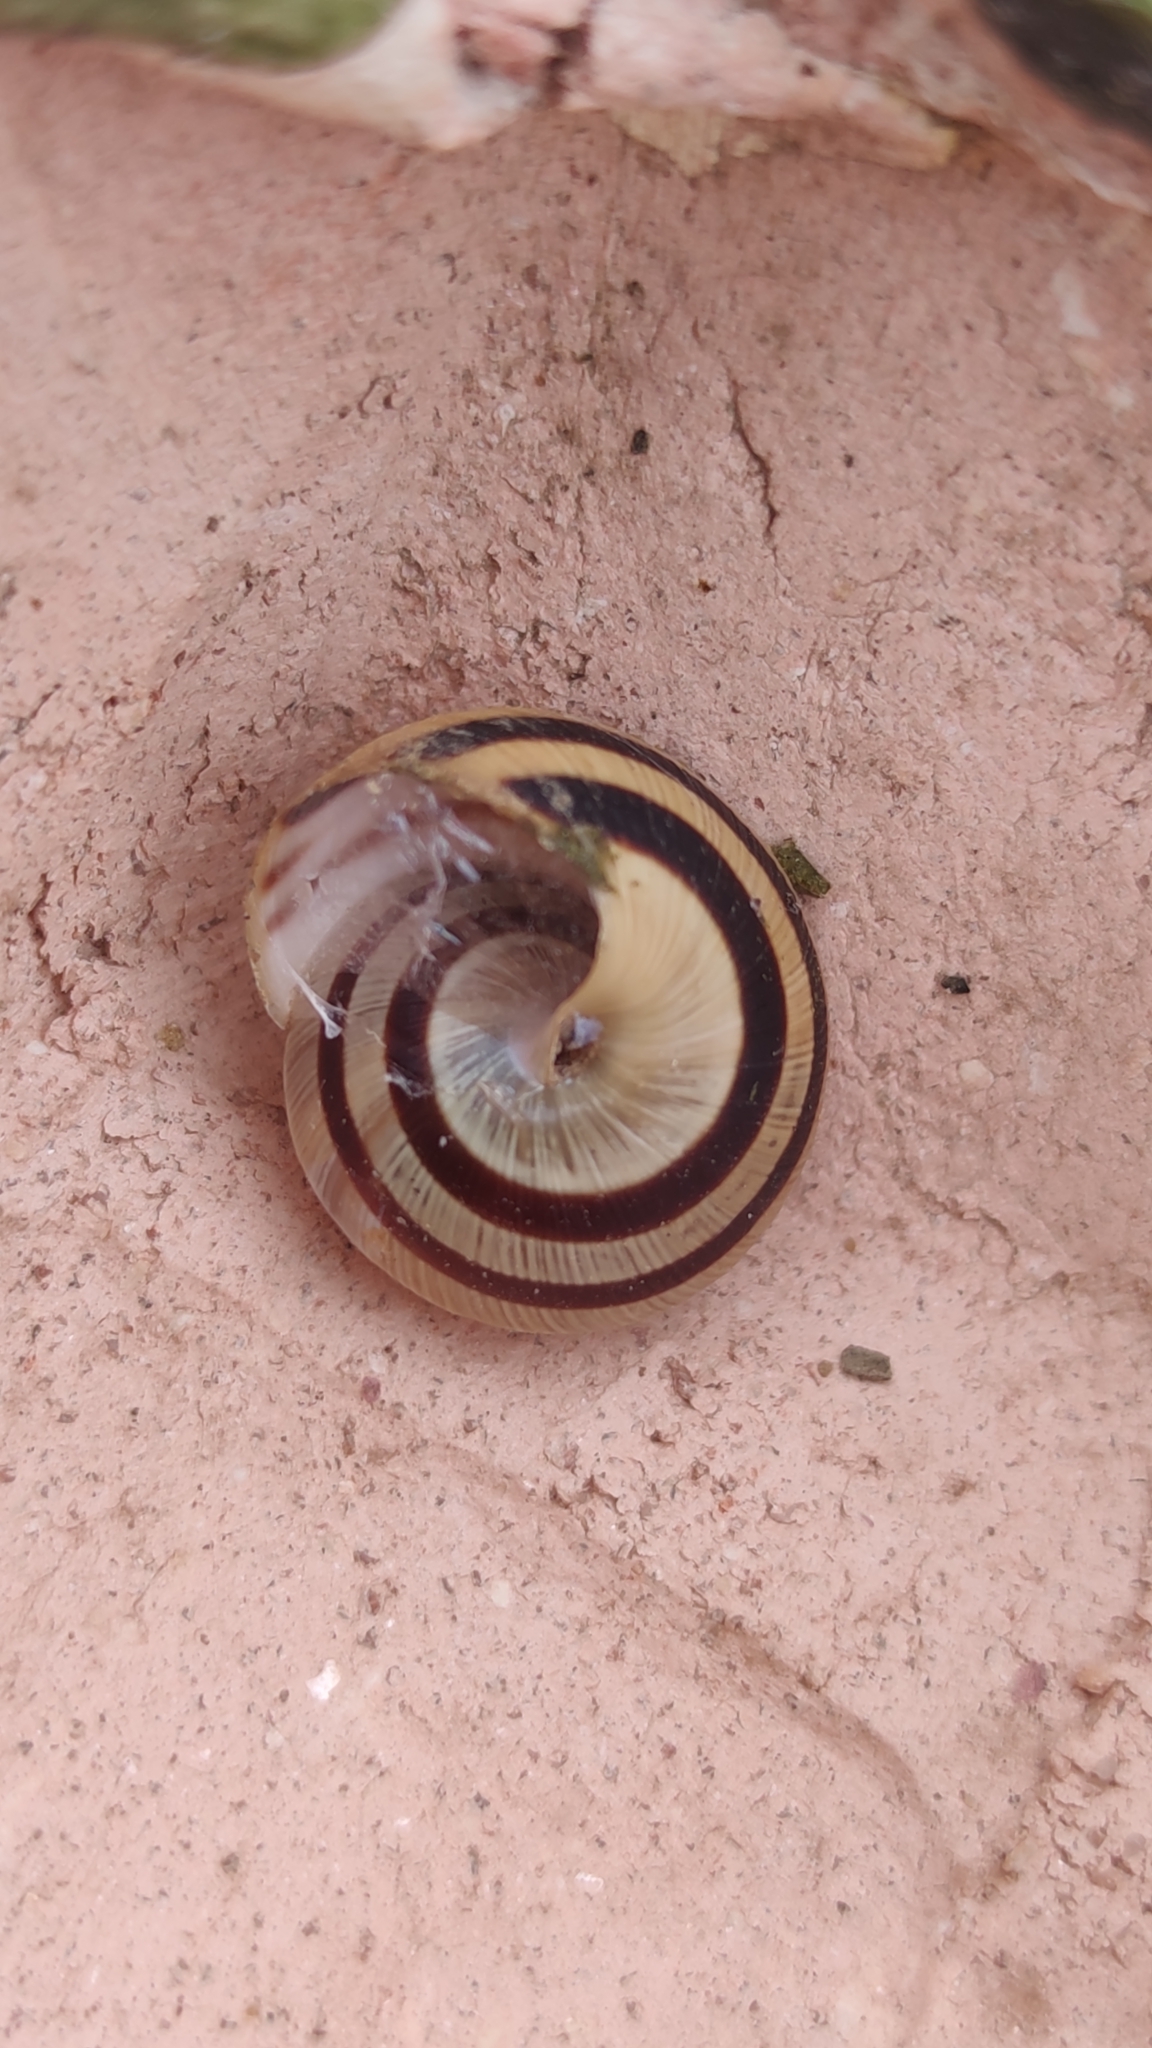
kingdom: Animalia
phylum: Mollusca
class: Gastropoda
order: Stylommatophora
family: Helicidae
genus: Caucasotachea
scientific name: Caucasotachea vindobonensis
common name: European helicid land snail
